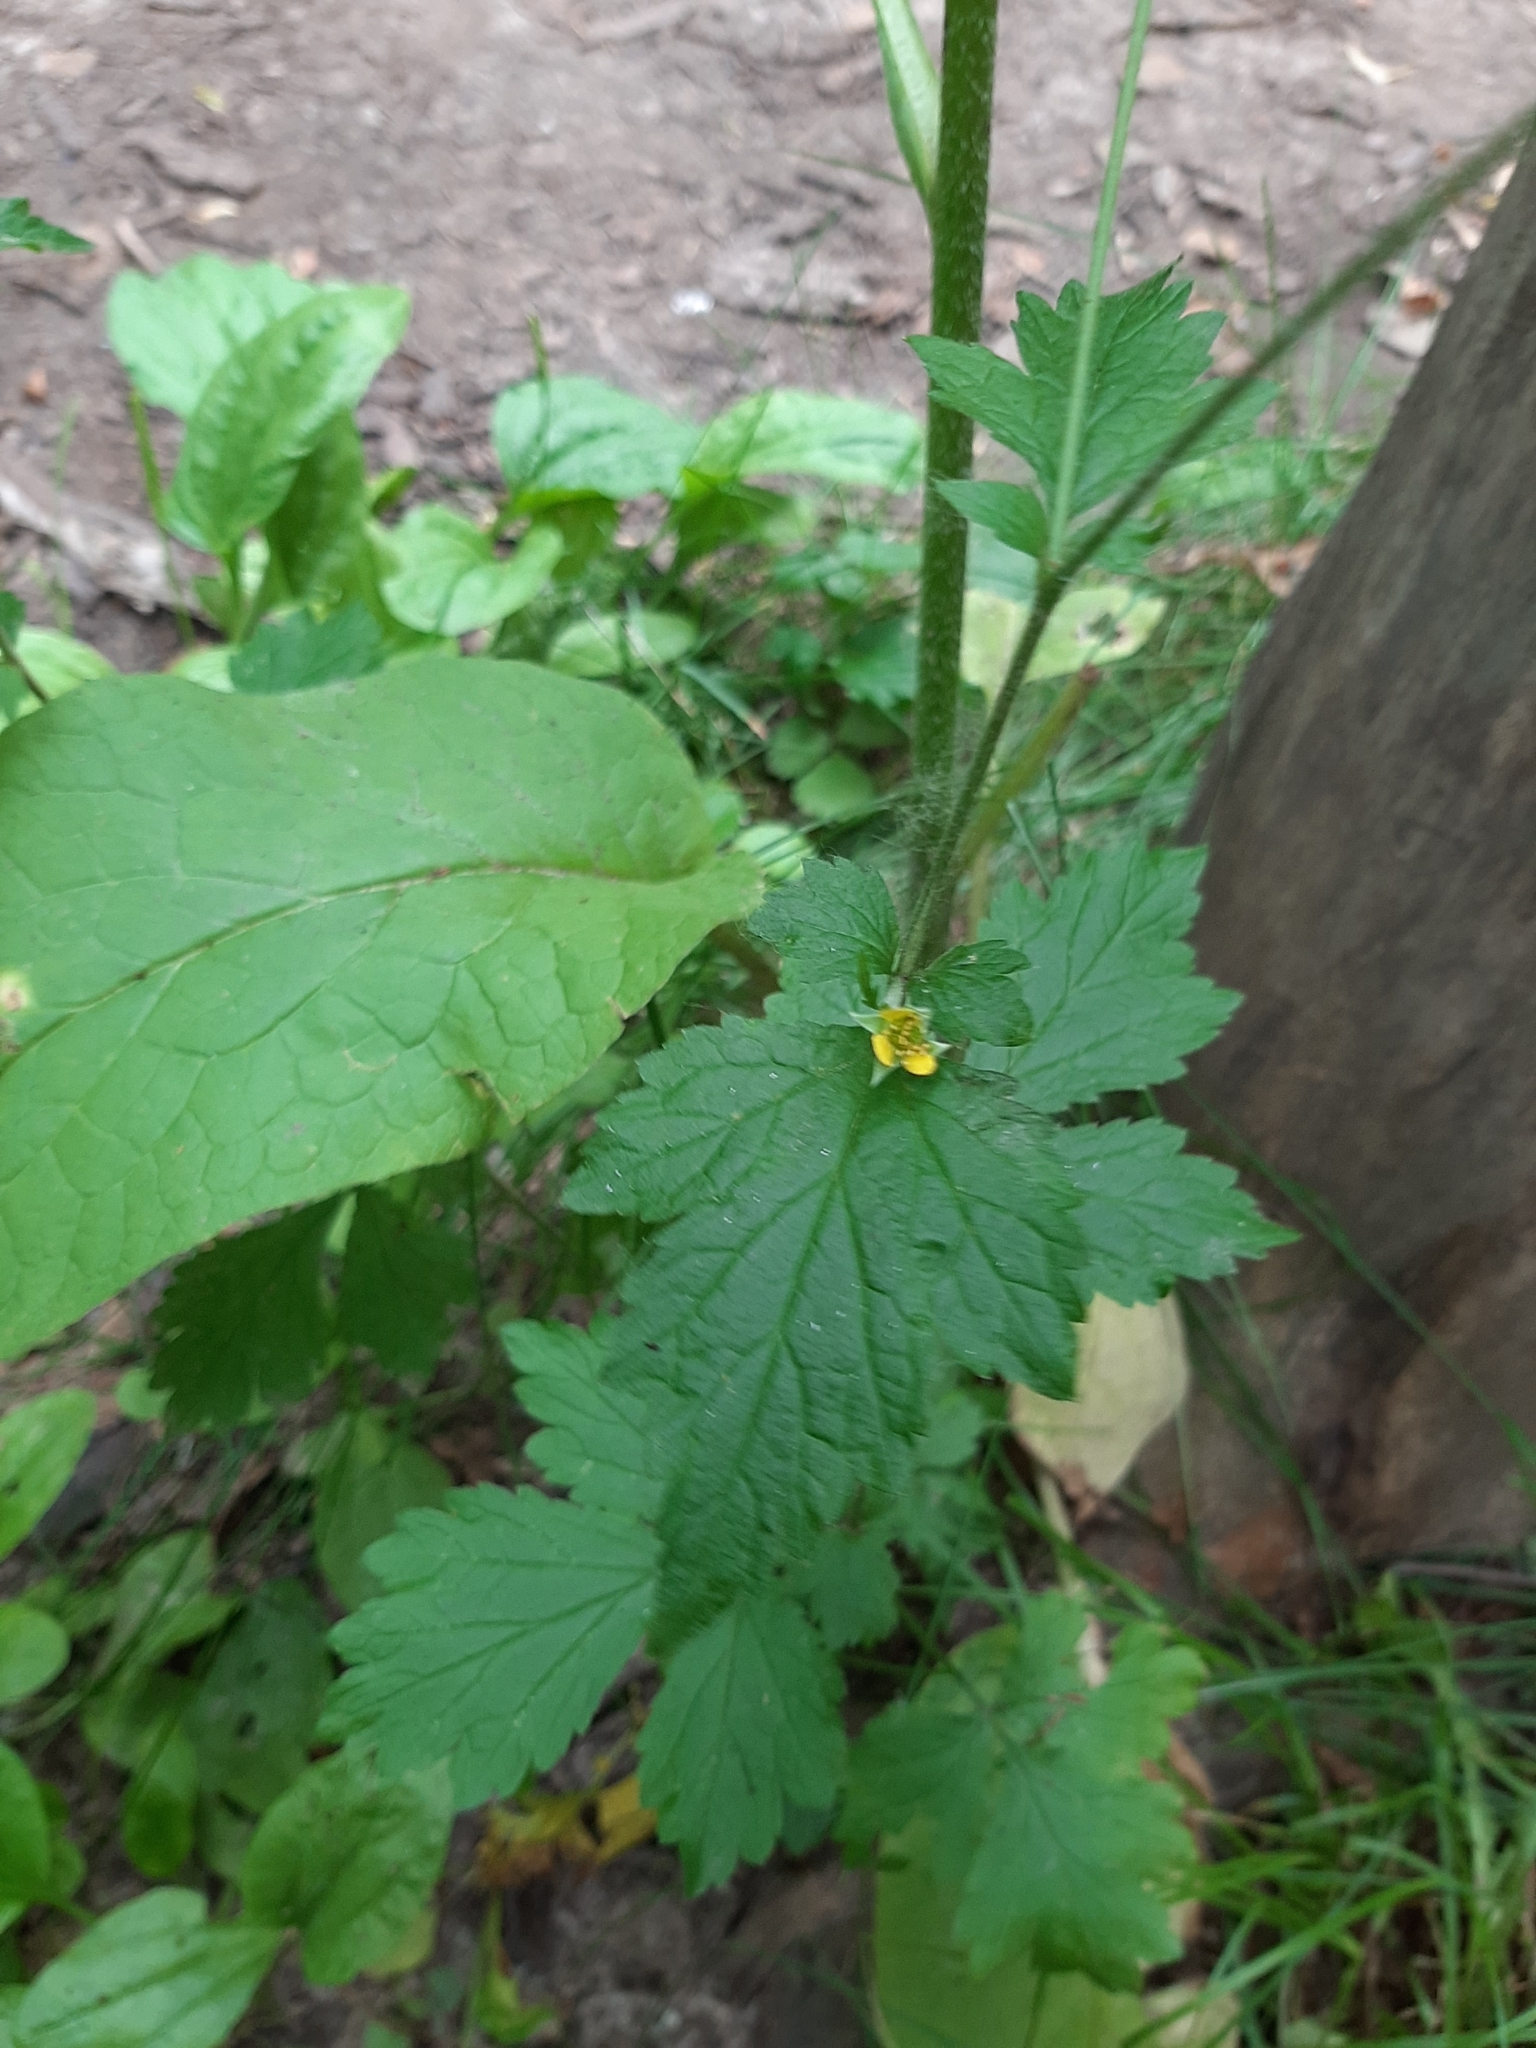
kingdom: Plantae
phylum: Tracheophyta
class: Magnoliopsida
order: Rosales
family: Rosaceae
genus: Geum
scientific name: Geum urbanum
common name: Wood avens
